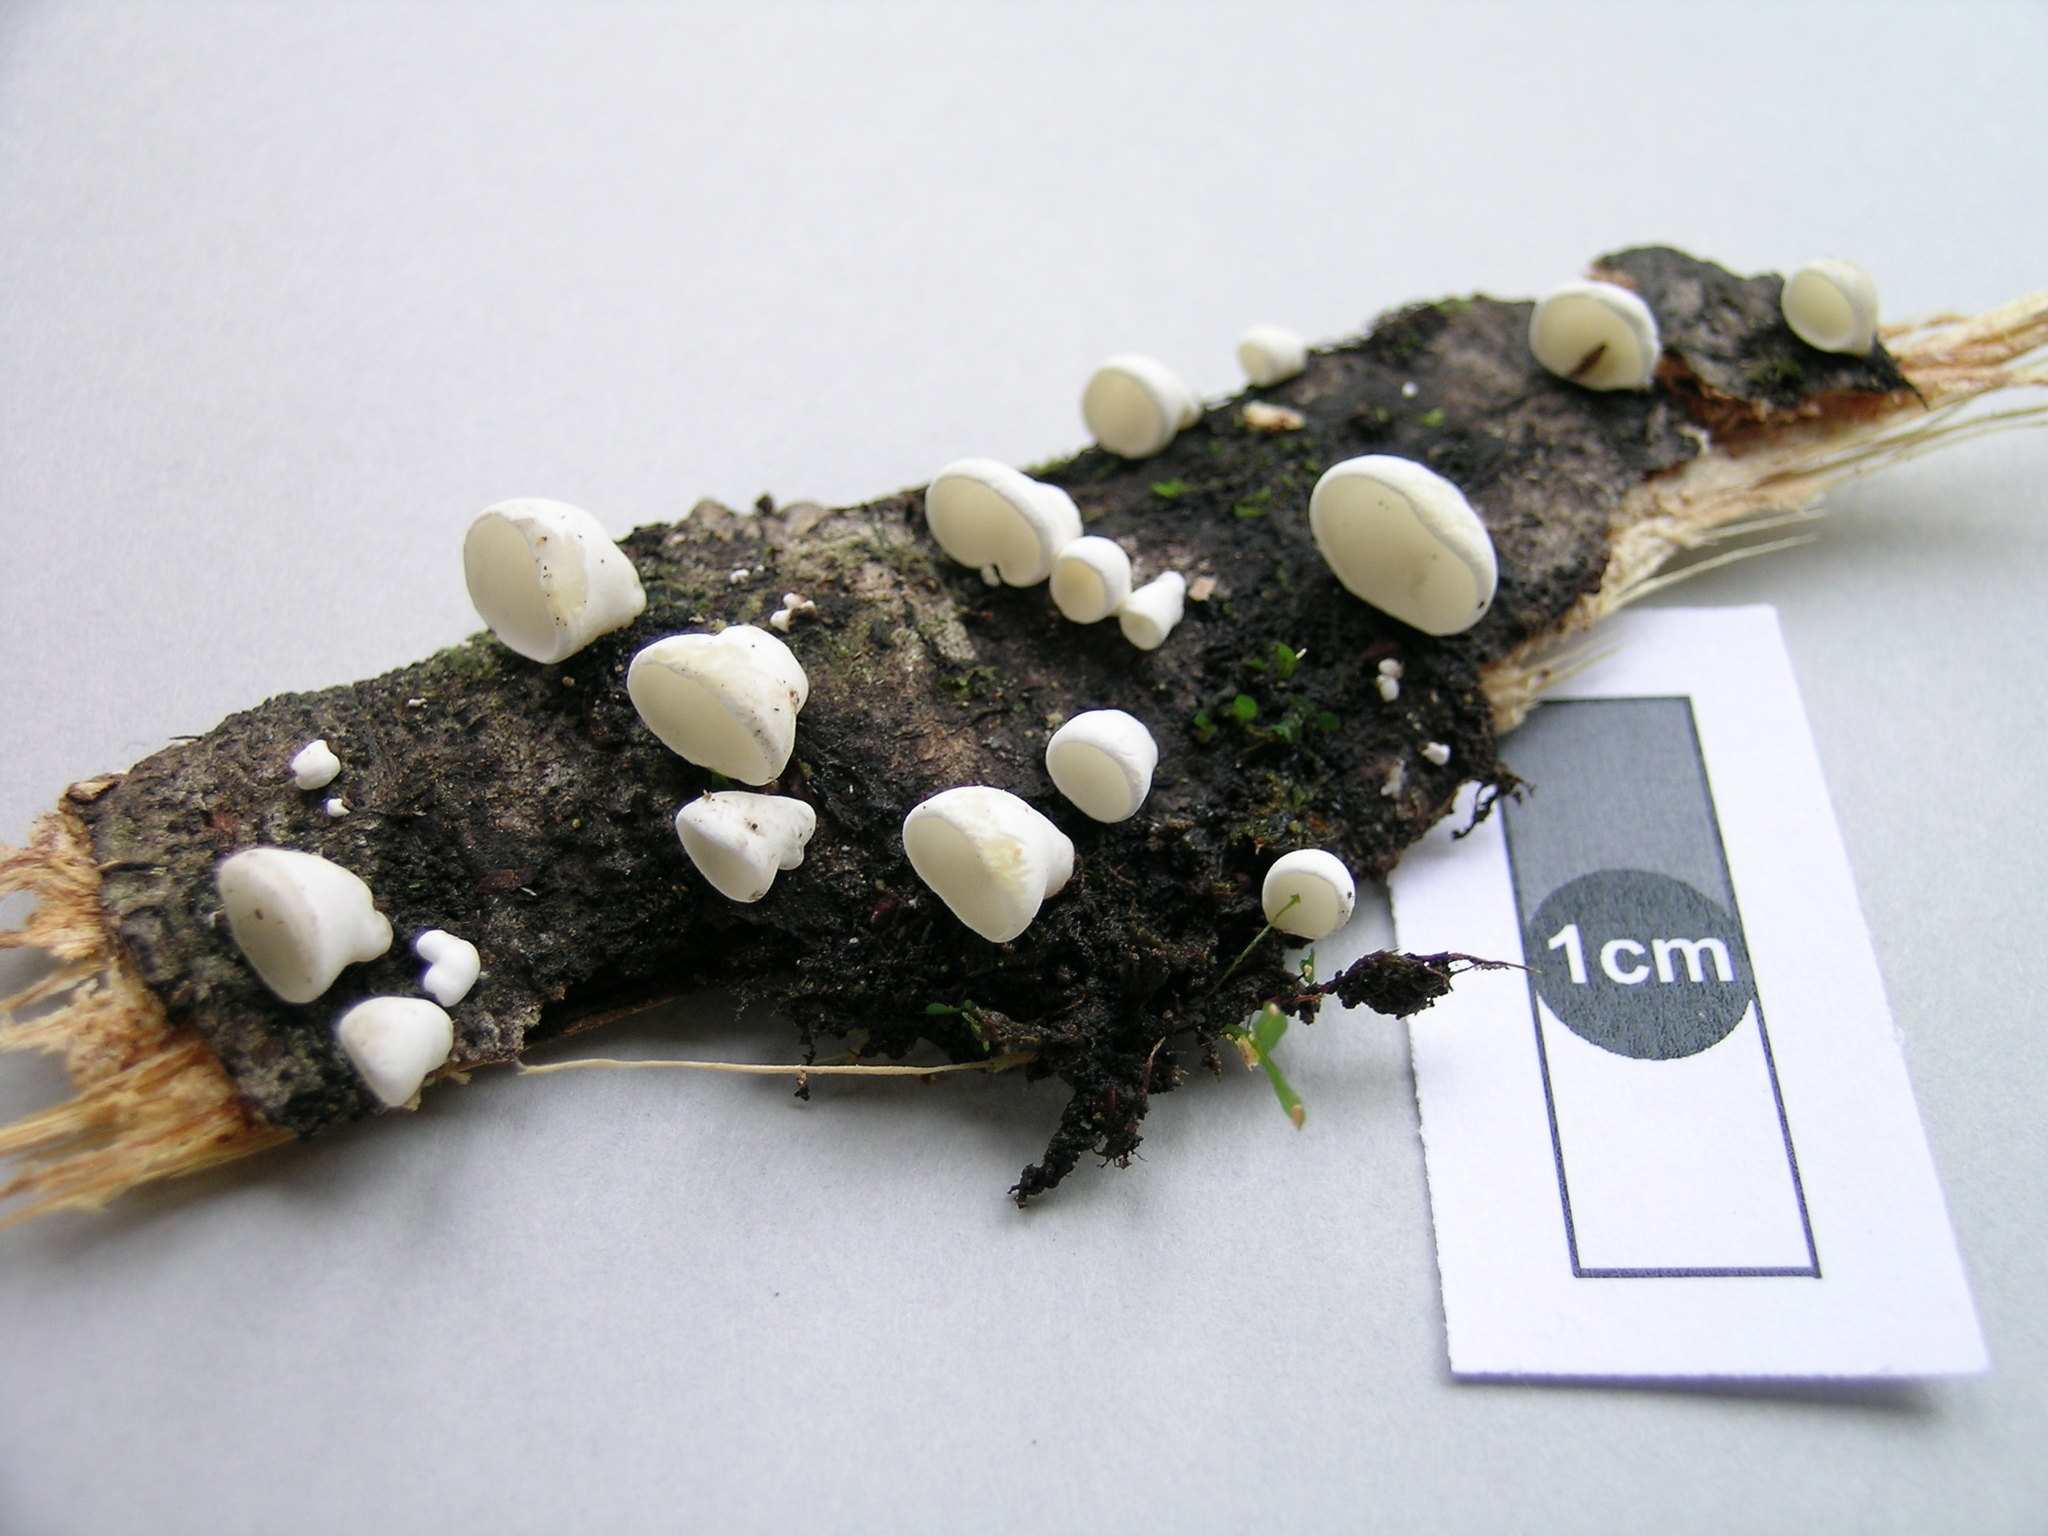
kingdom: Fungi
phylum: Basidiomycota
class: Agaricomycetes
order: Polyporales
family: Irpicaceae
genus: Gloeoporus
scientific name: Gloeoporus phlebophorus
